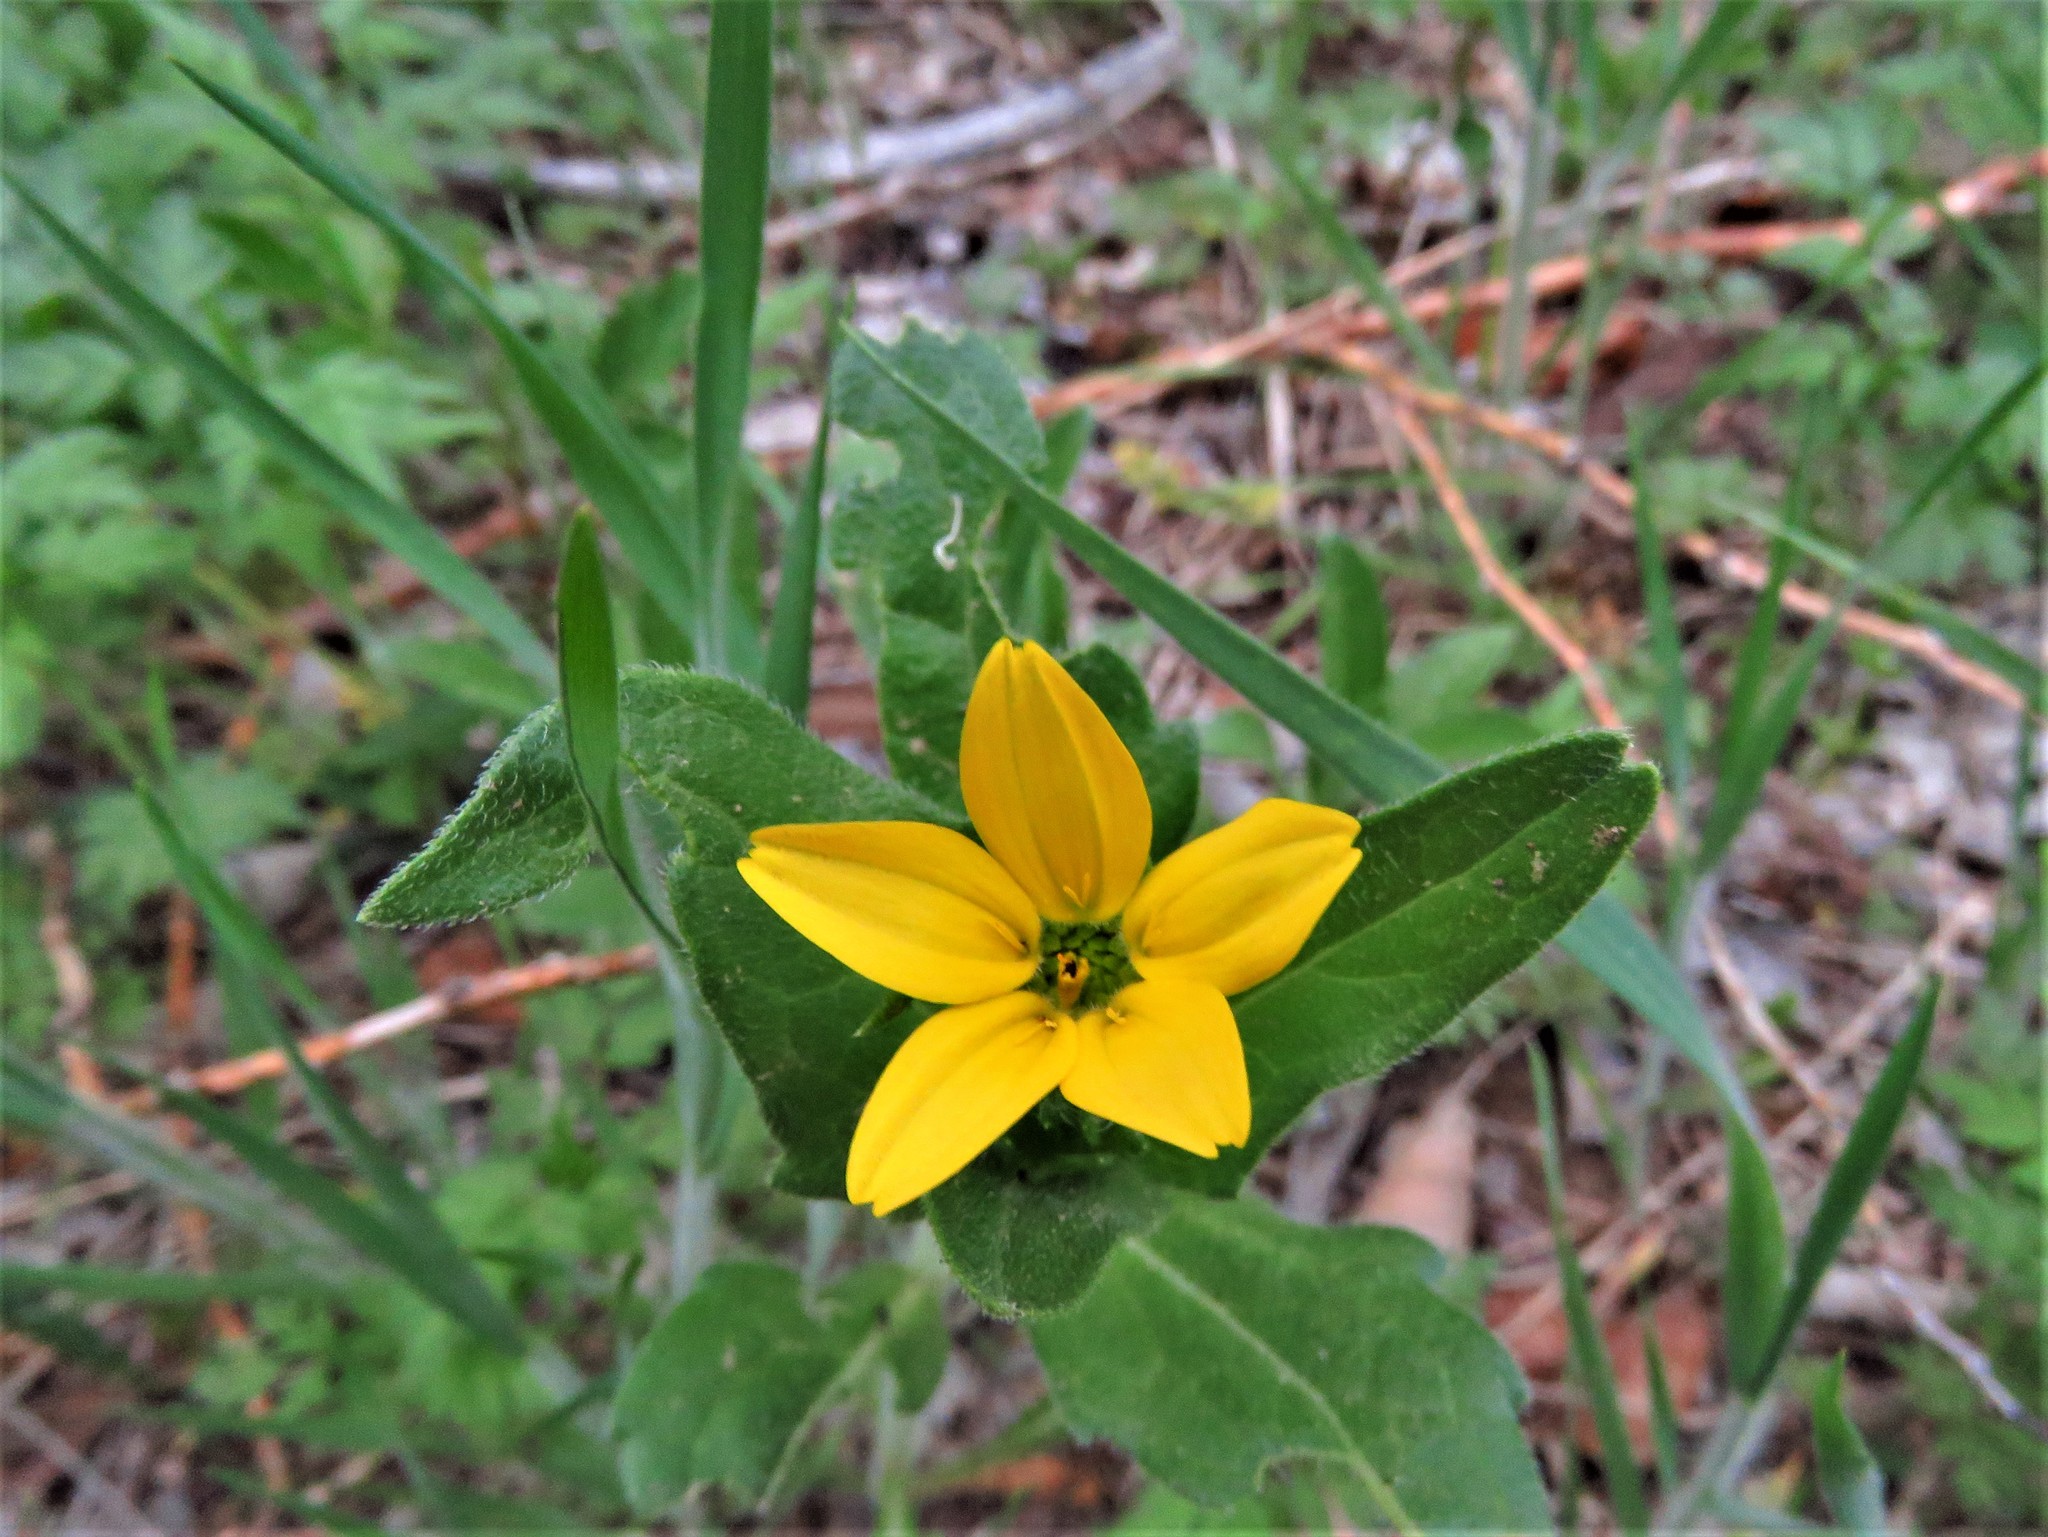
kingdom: Plantae
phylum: Tracheophyta
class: Magnoliopsida
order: Asterales
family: Asteraceae
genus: Lindheimera
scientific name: Lindheimera texana
